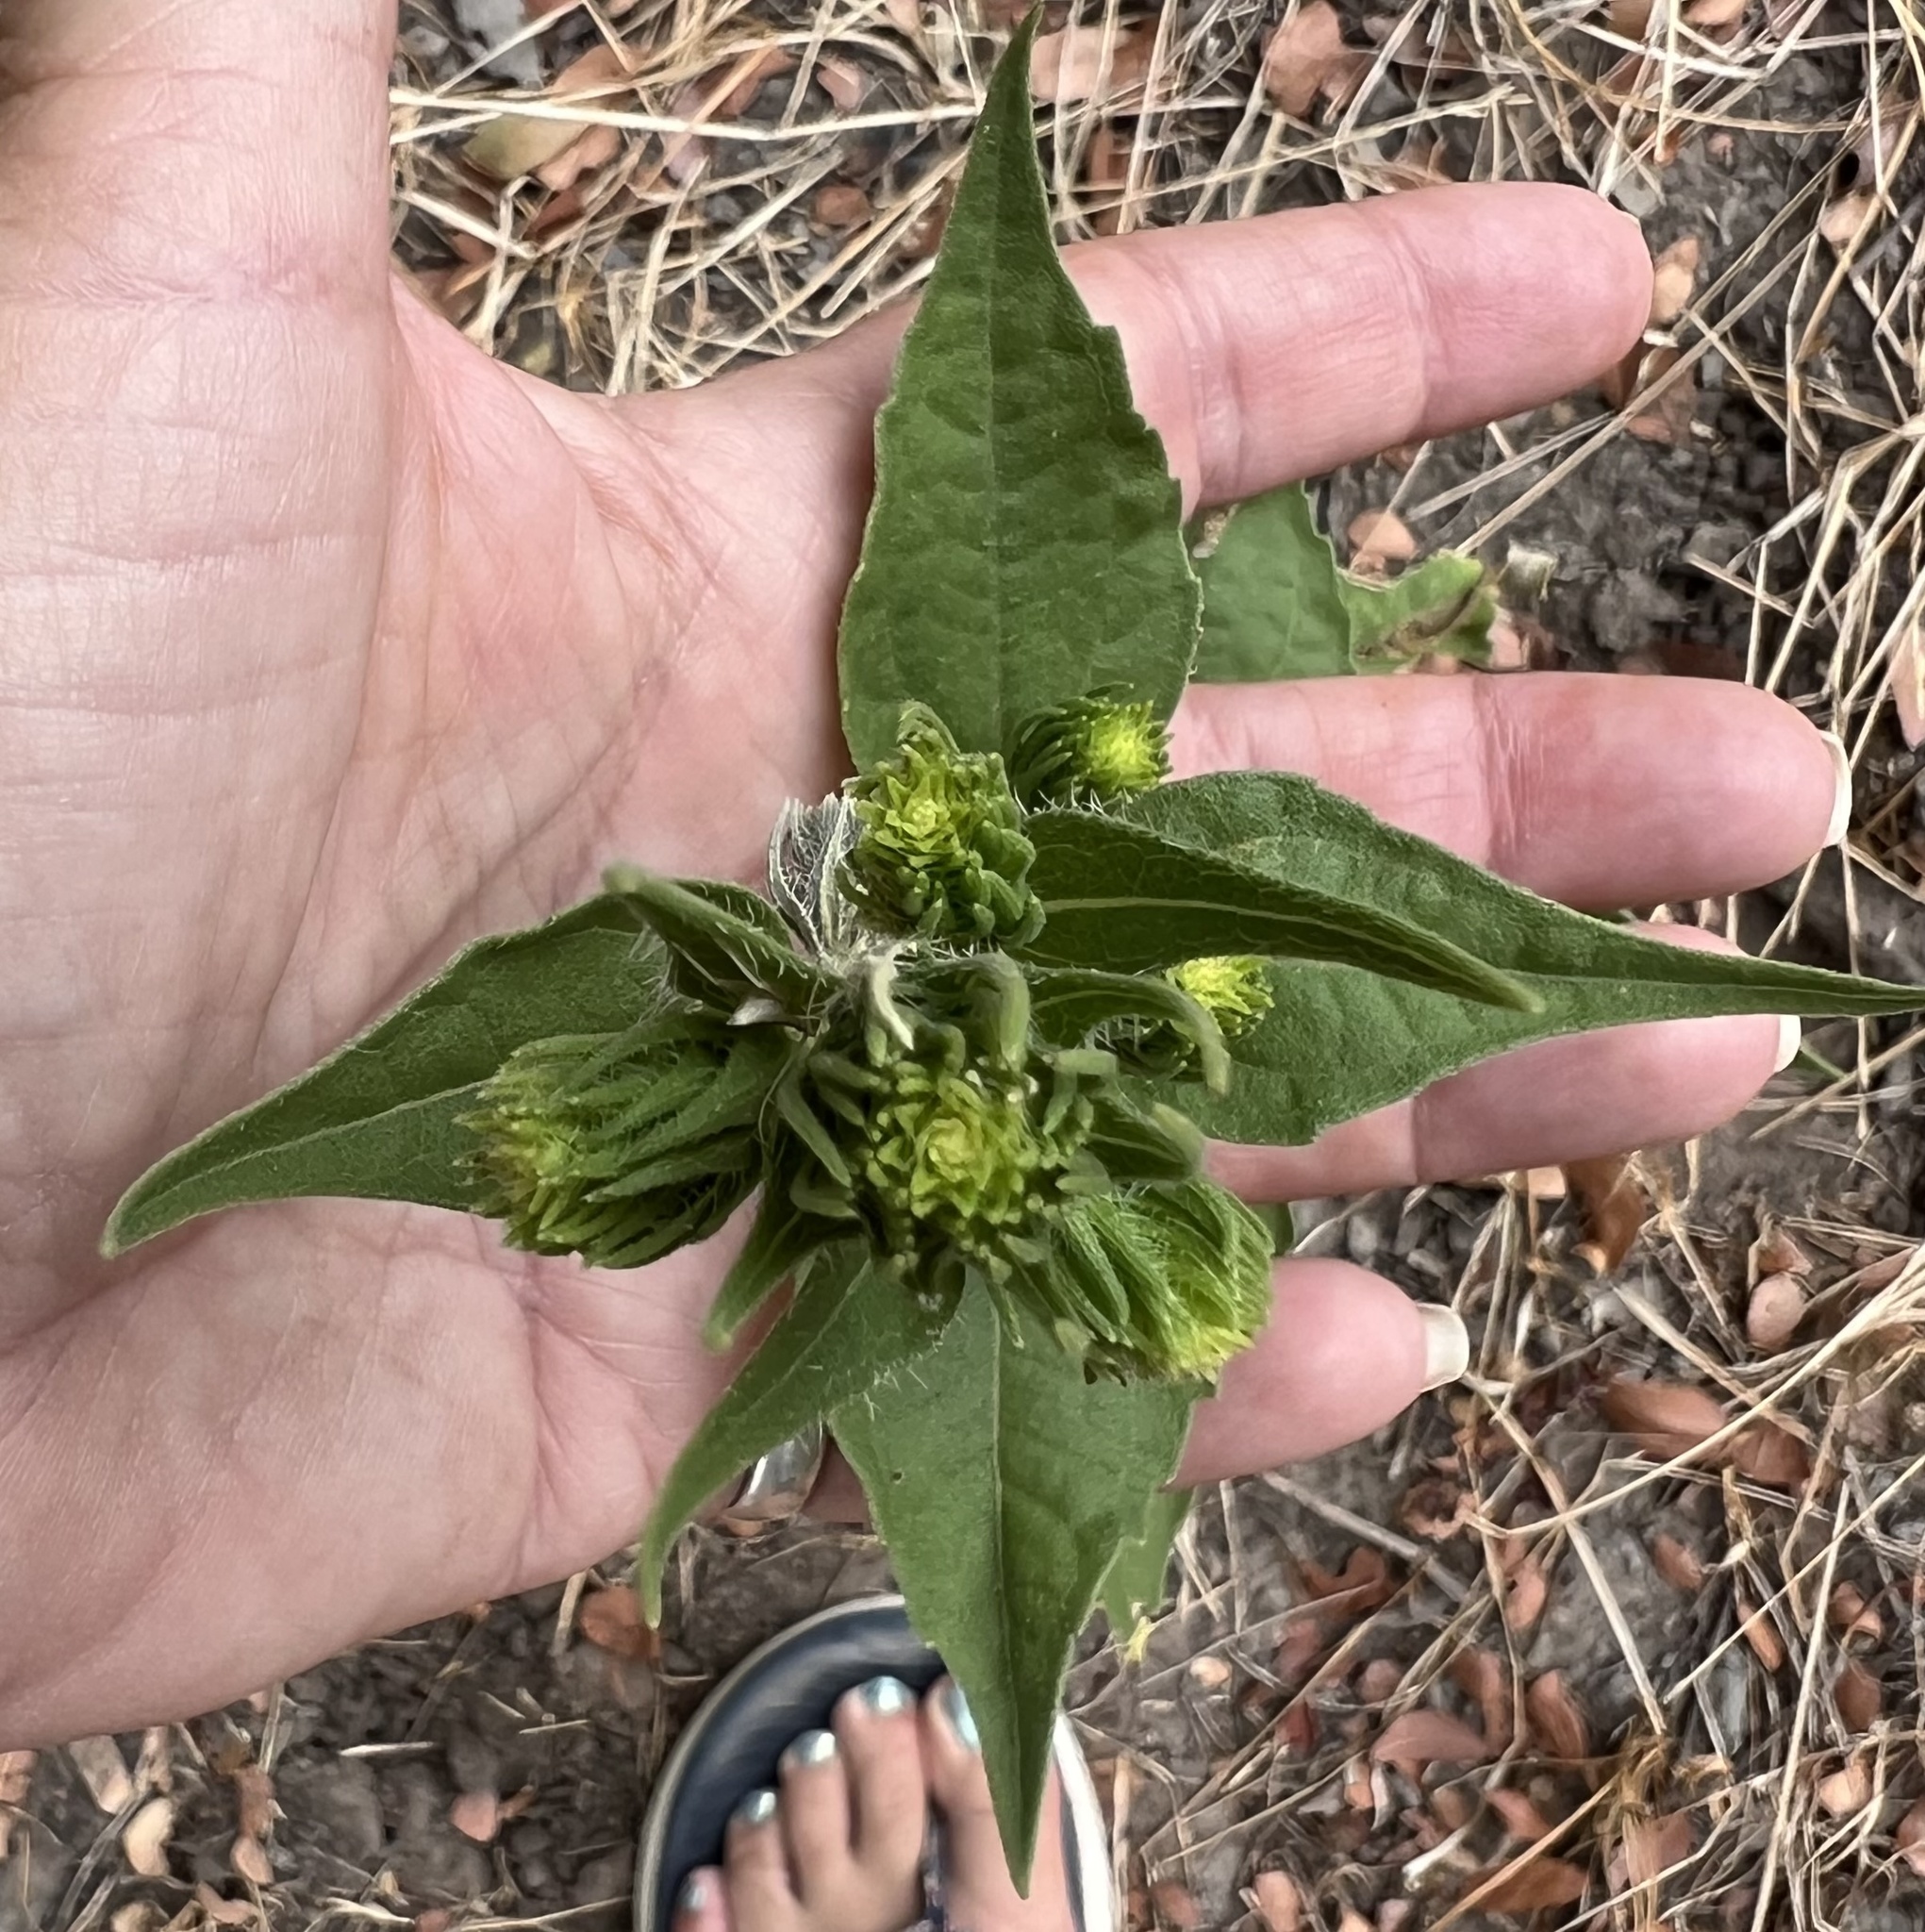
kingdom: Plantae
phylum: Tracheophyta
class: Magnoliopsida
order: Asterales
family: Asteraceae
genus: Iva
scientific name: Iva annua
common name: Marsh-elder
